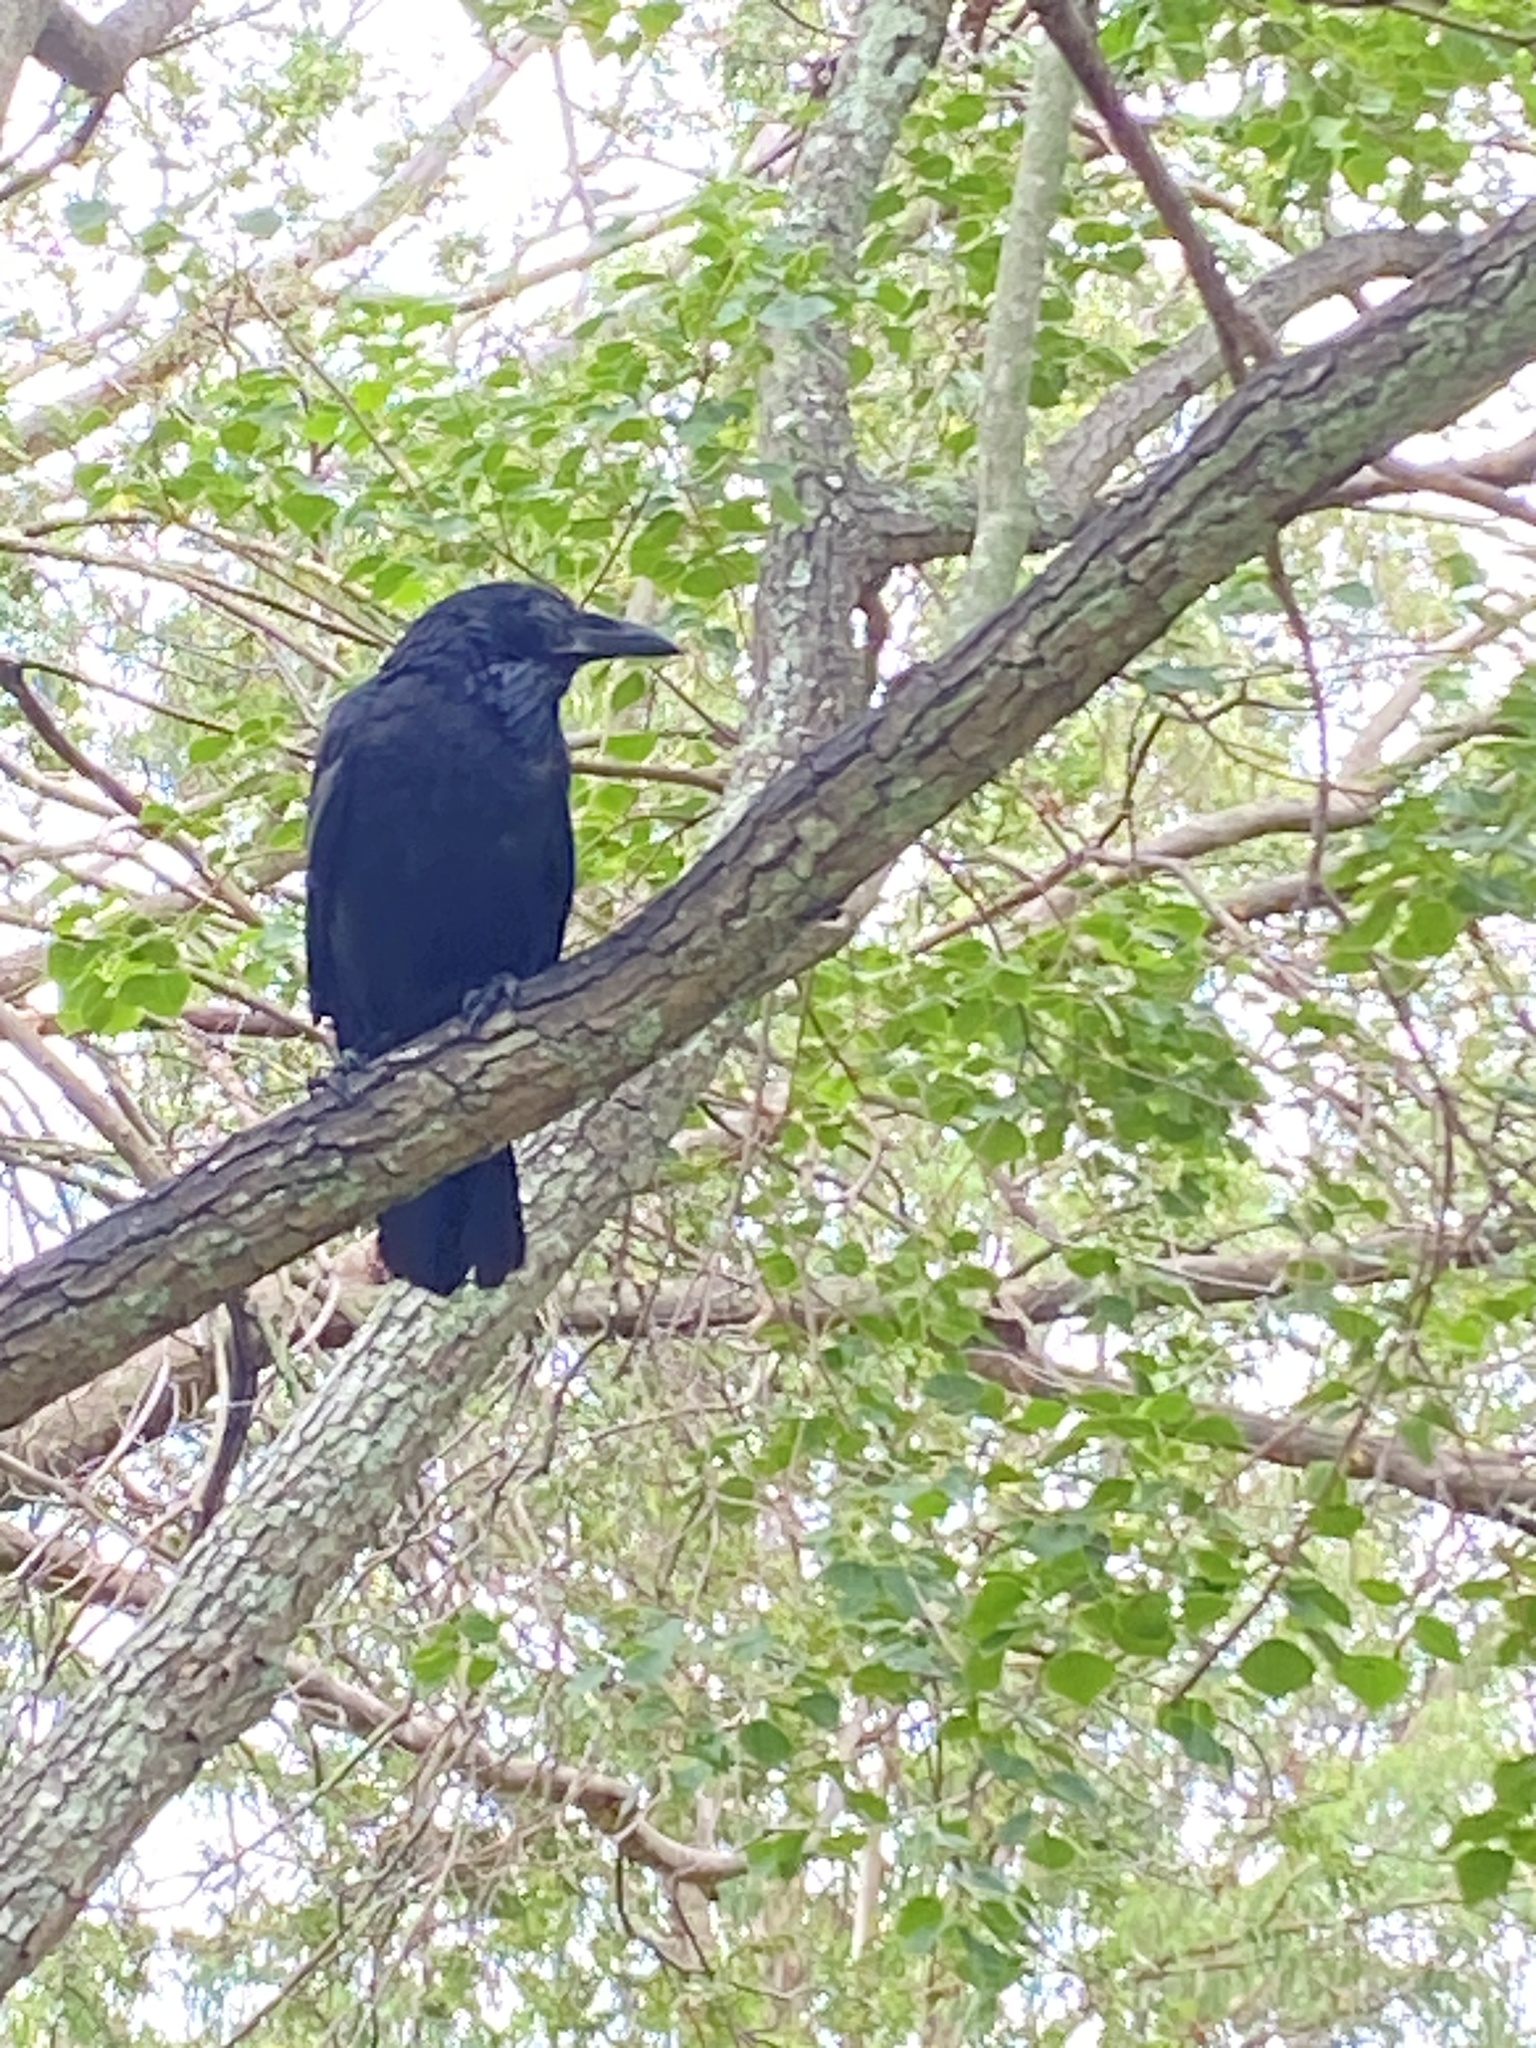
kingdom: Animalia
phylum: Chordata
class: Aves
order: Passeriformes
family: Corvidae
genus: Corvus
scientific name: Corvus coronoides
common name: Australian raven
